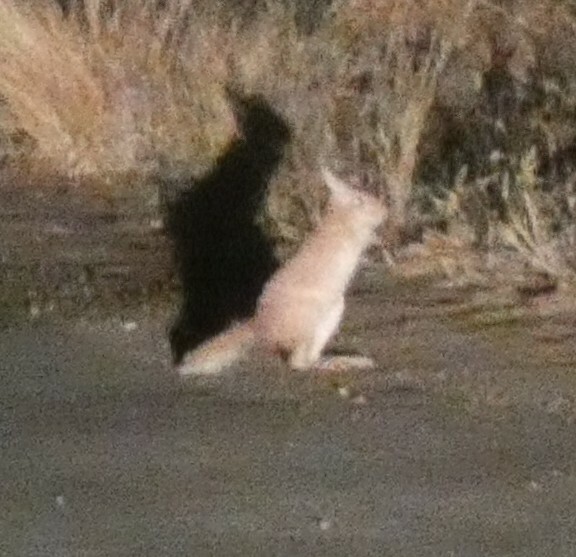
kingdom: Animalia
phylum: Chordata
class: Mammalia
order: Rodentia
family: Pedetidae
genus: Pedetes
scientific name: Pedetes capensis
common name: South african spring hare
